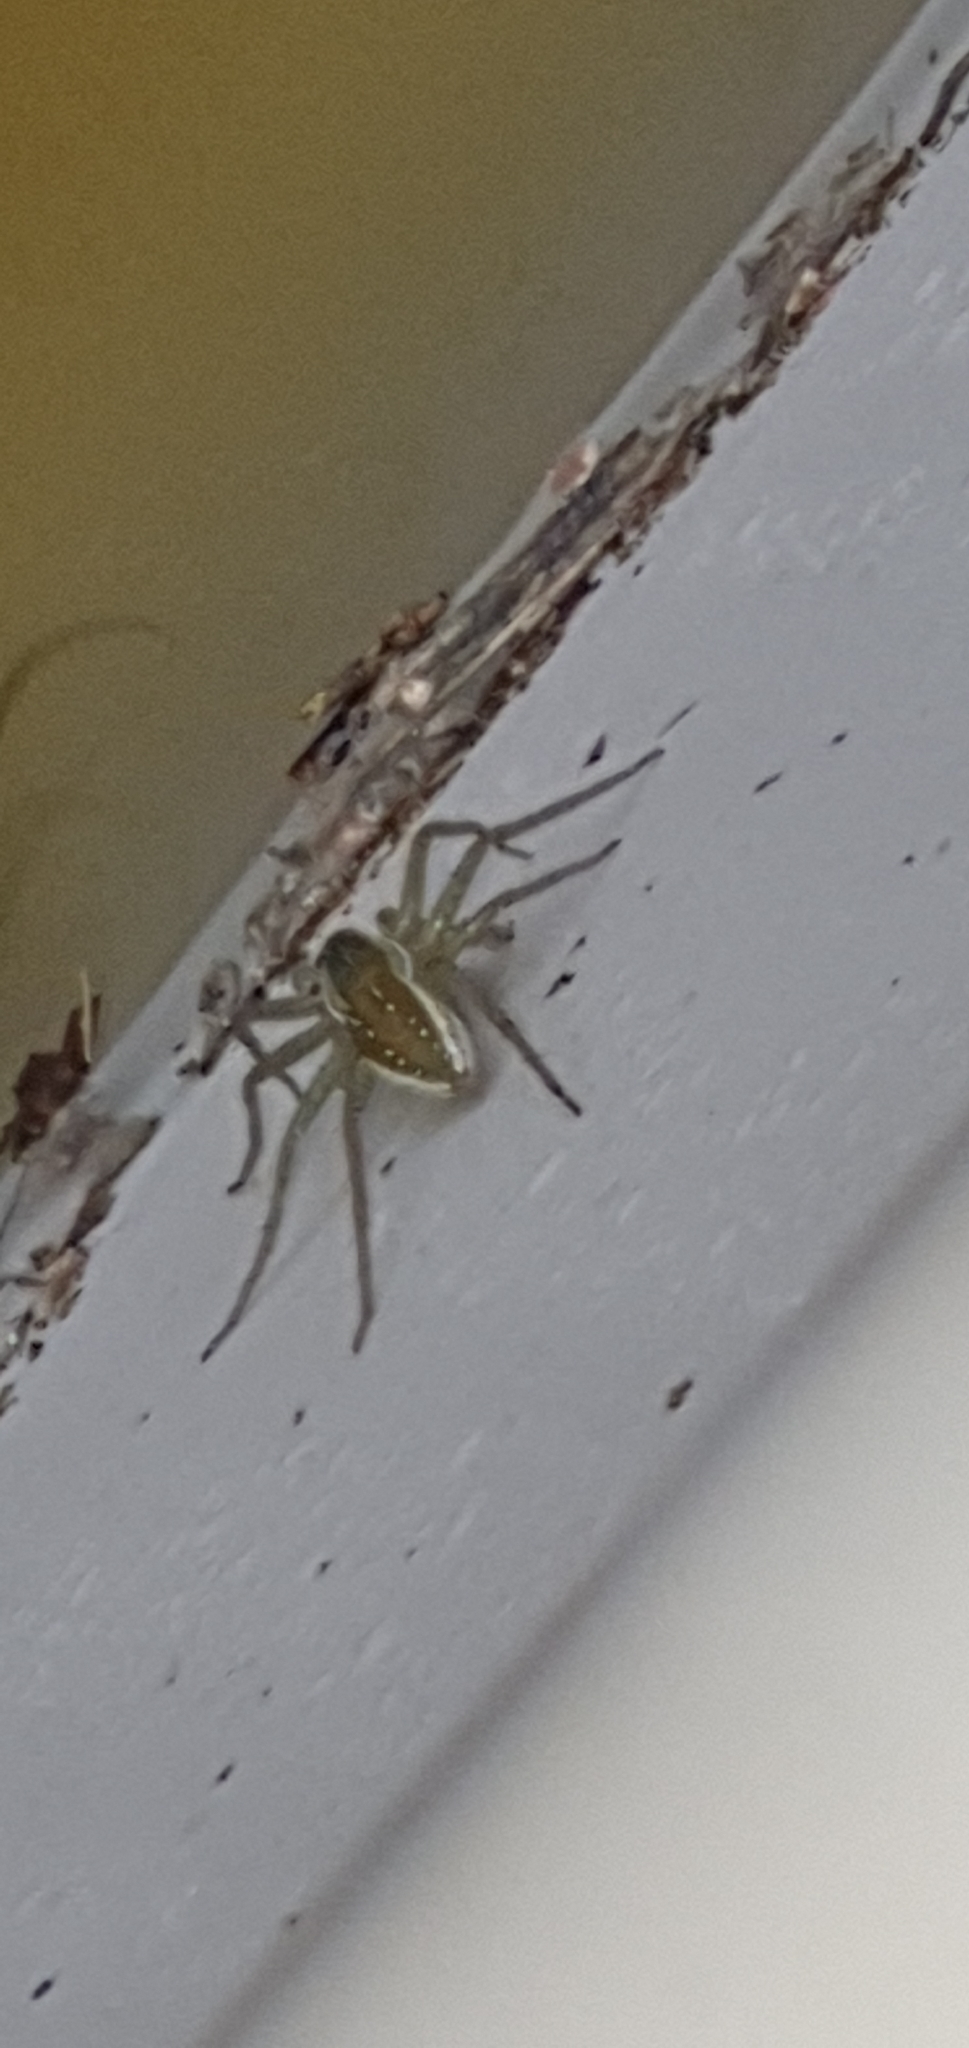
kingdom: Animalia
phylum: Arthropoda
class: Arachnida
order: Araneae
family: Pisauridae
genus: Dolomedes
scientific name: Dolomedes facetus
